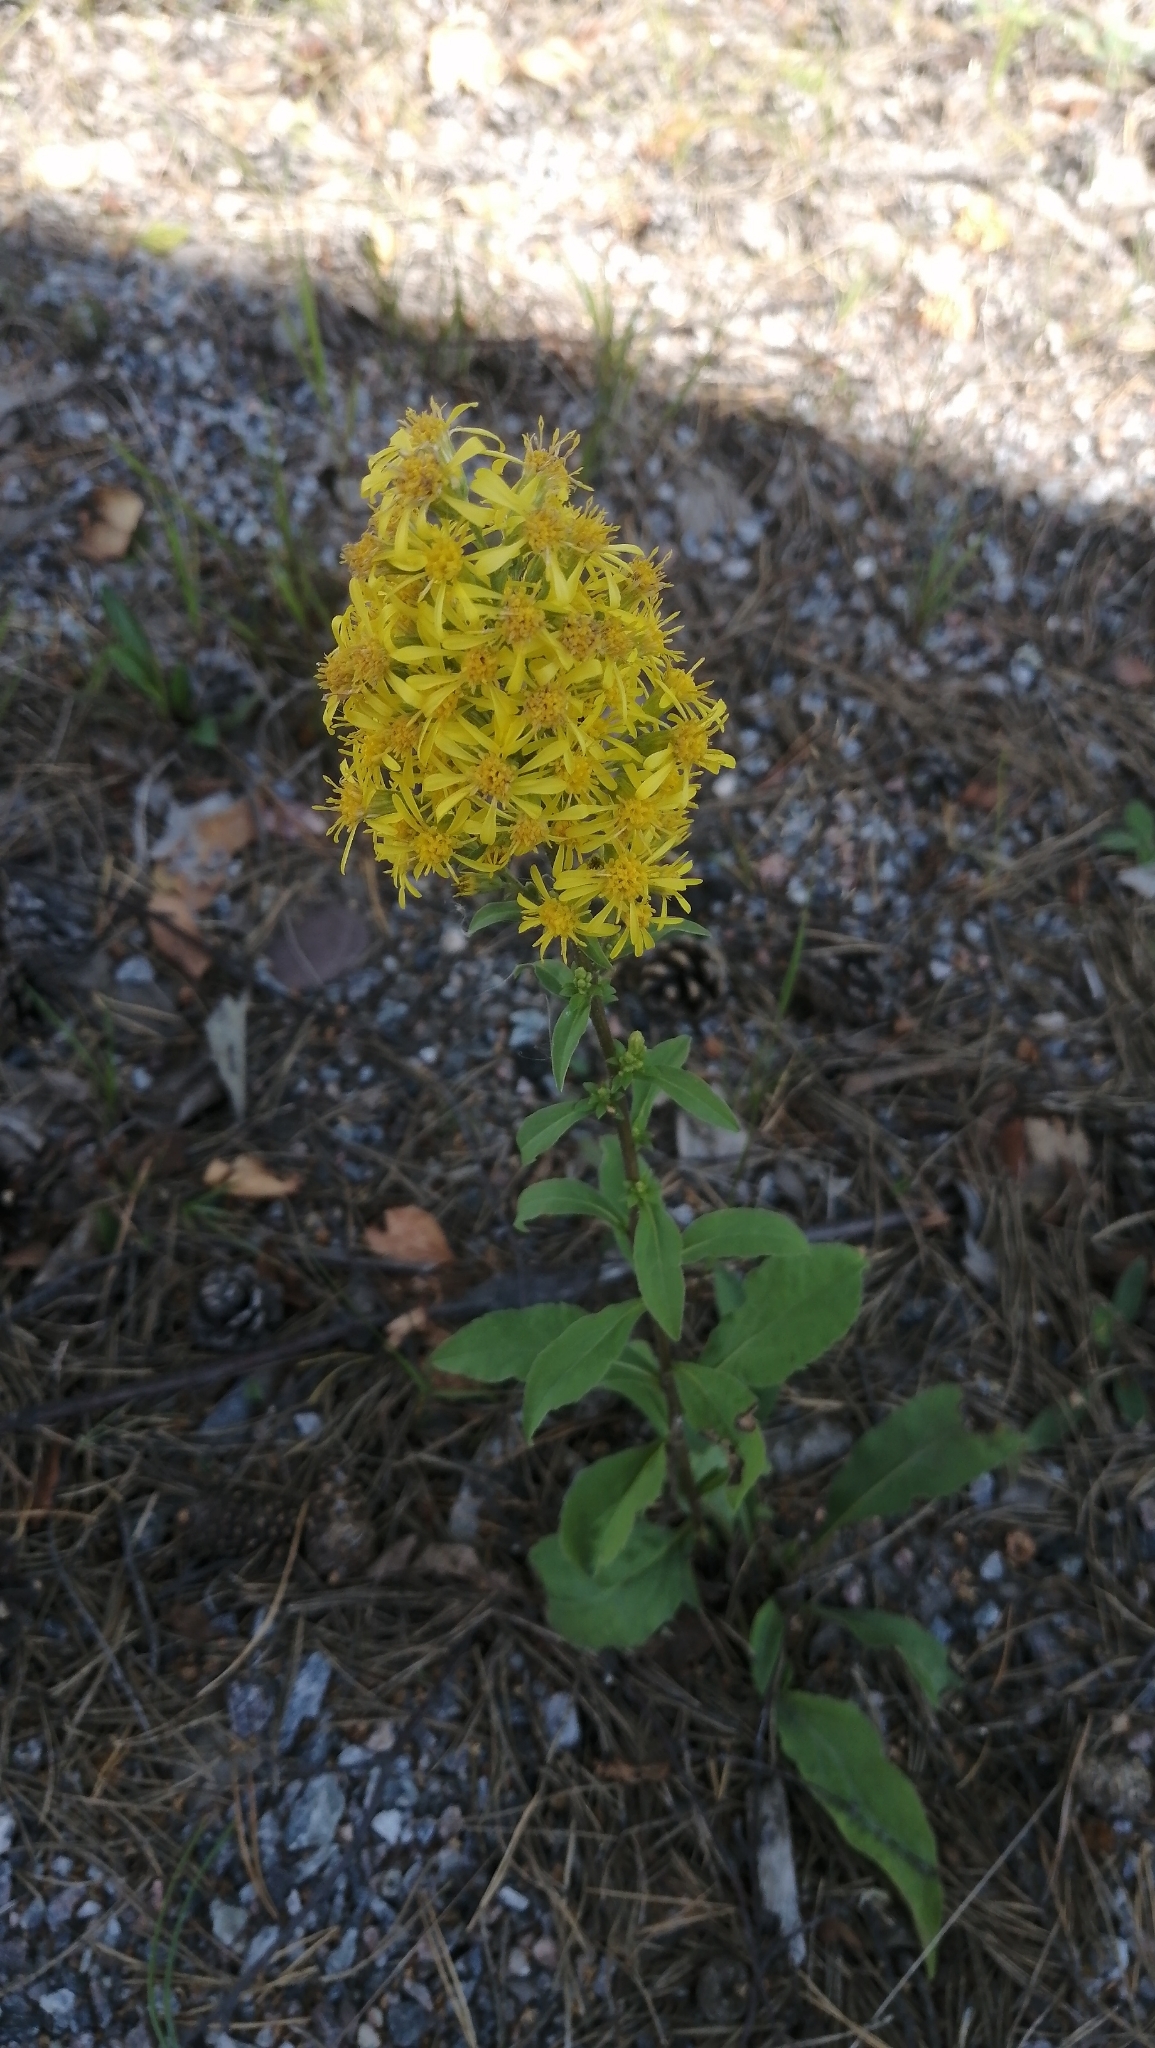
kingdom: Plantae
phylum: Tracheophyta
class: Magnoliopsida
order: Asterales
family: Asteraceae
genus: Solidago
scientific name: Solidago virgaurea
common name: Goldenrod
